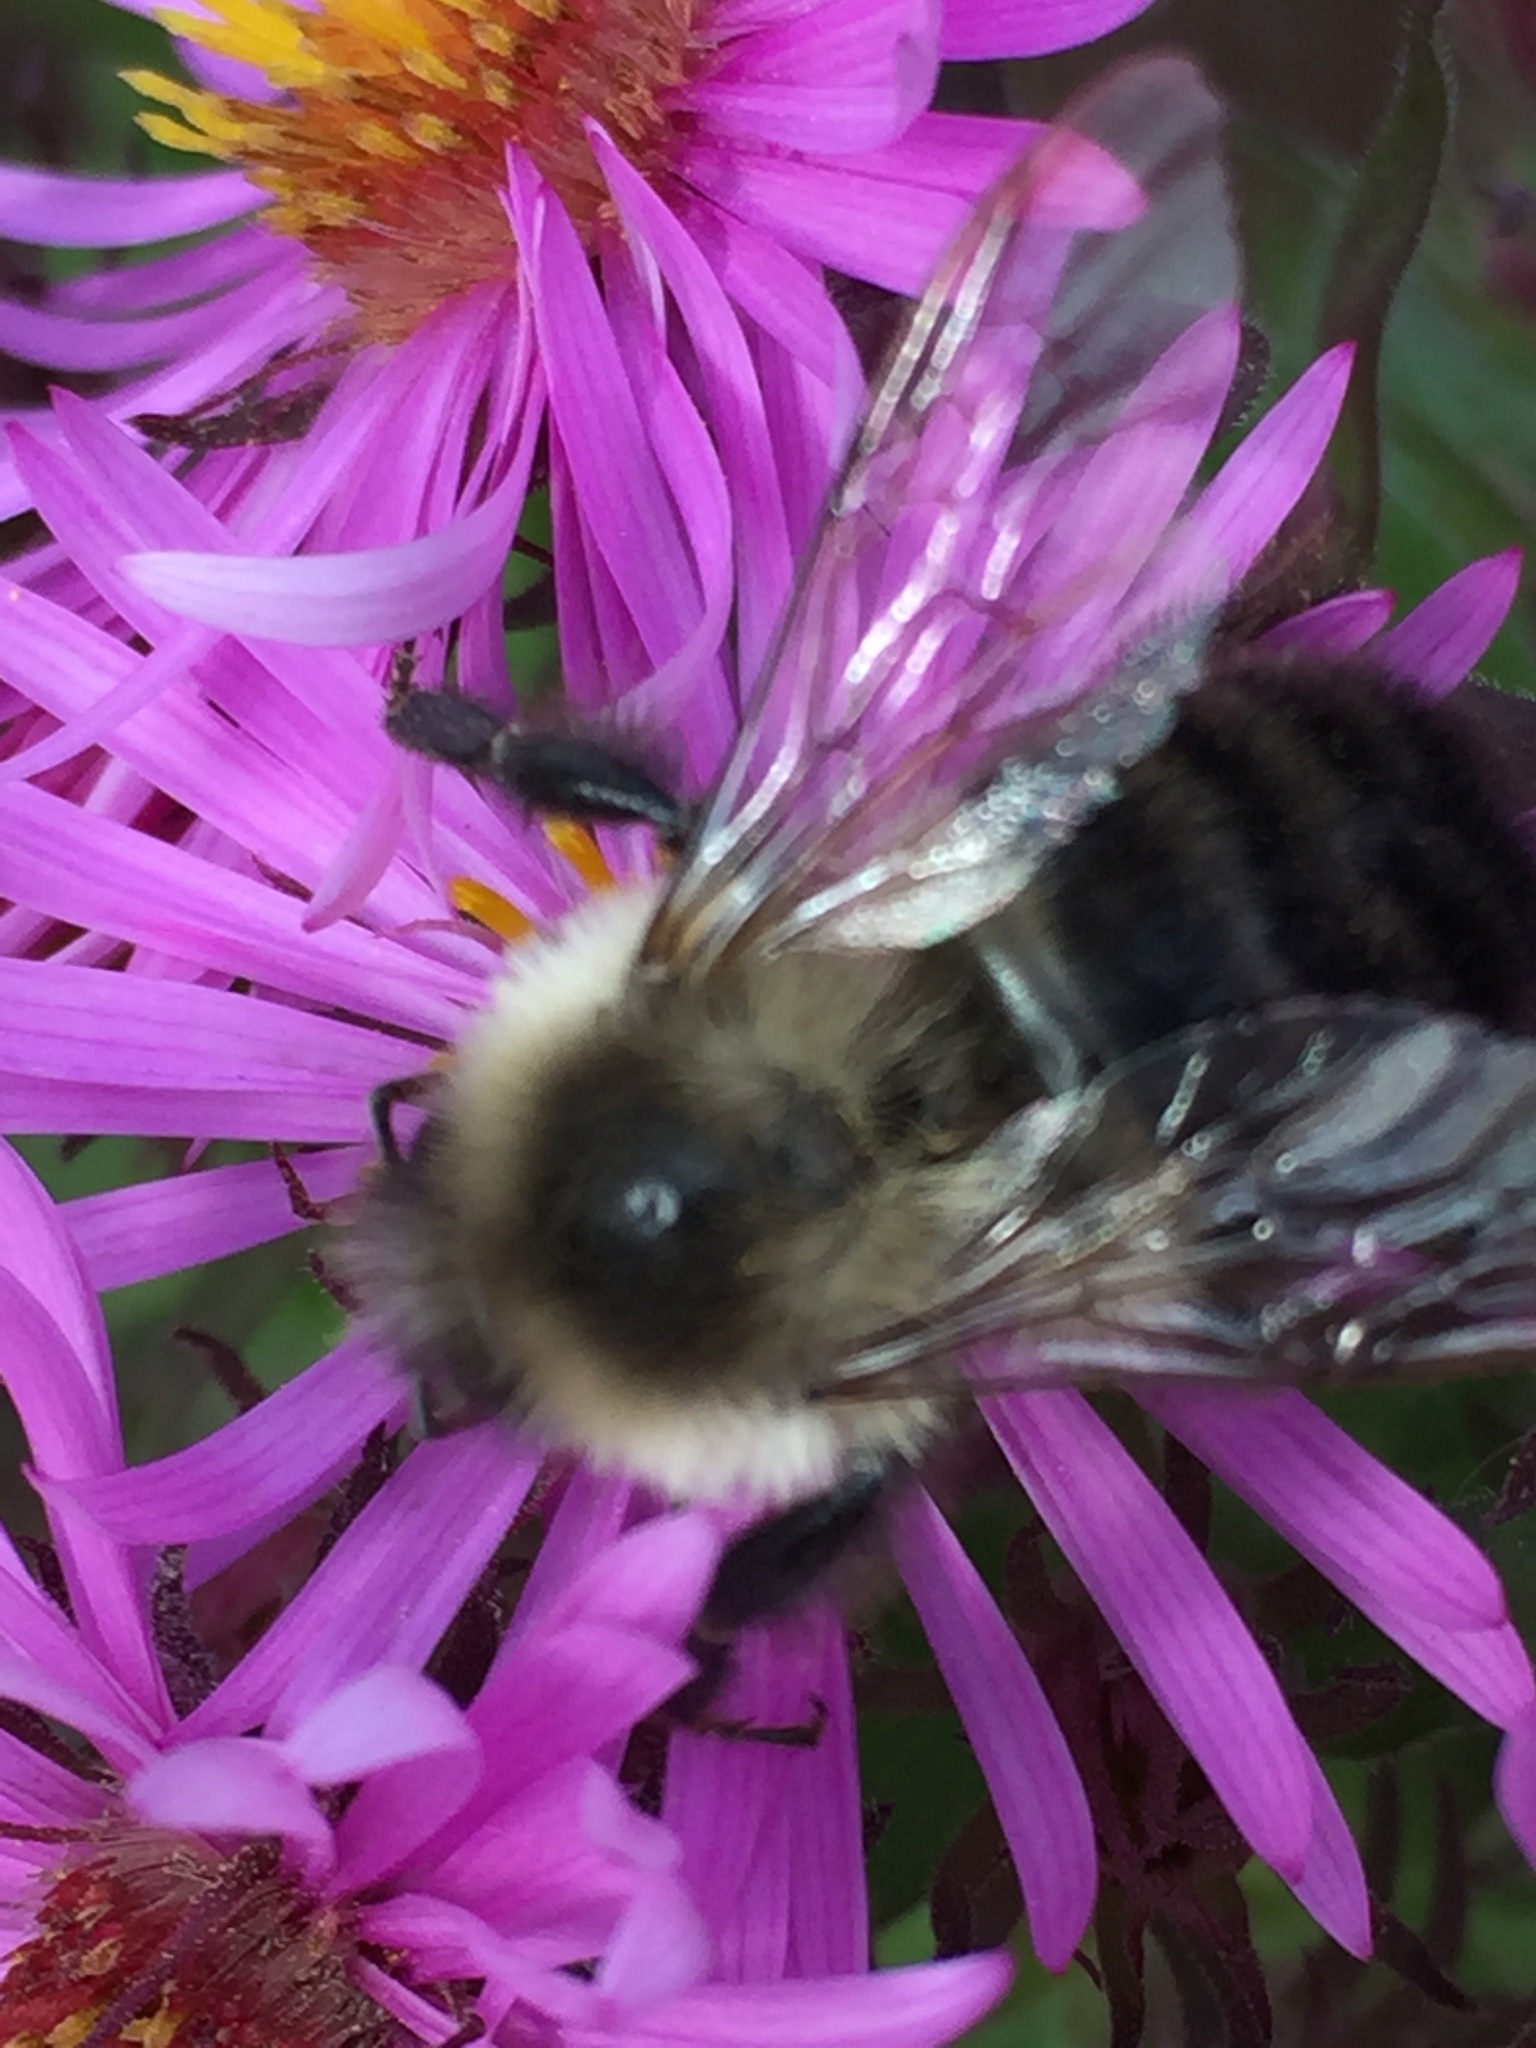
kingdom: Animalia
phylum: Arthropoda
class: Insecta
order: Hymenoptera
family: Apidae
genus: Bombus
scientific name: Bombus impatiens
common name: Common eastern bumble bee
